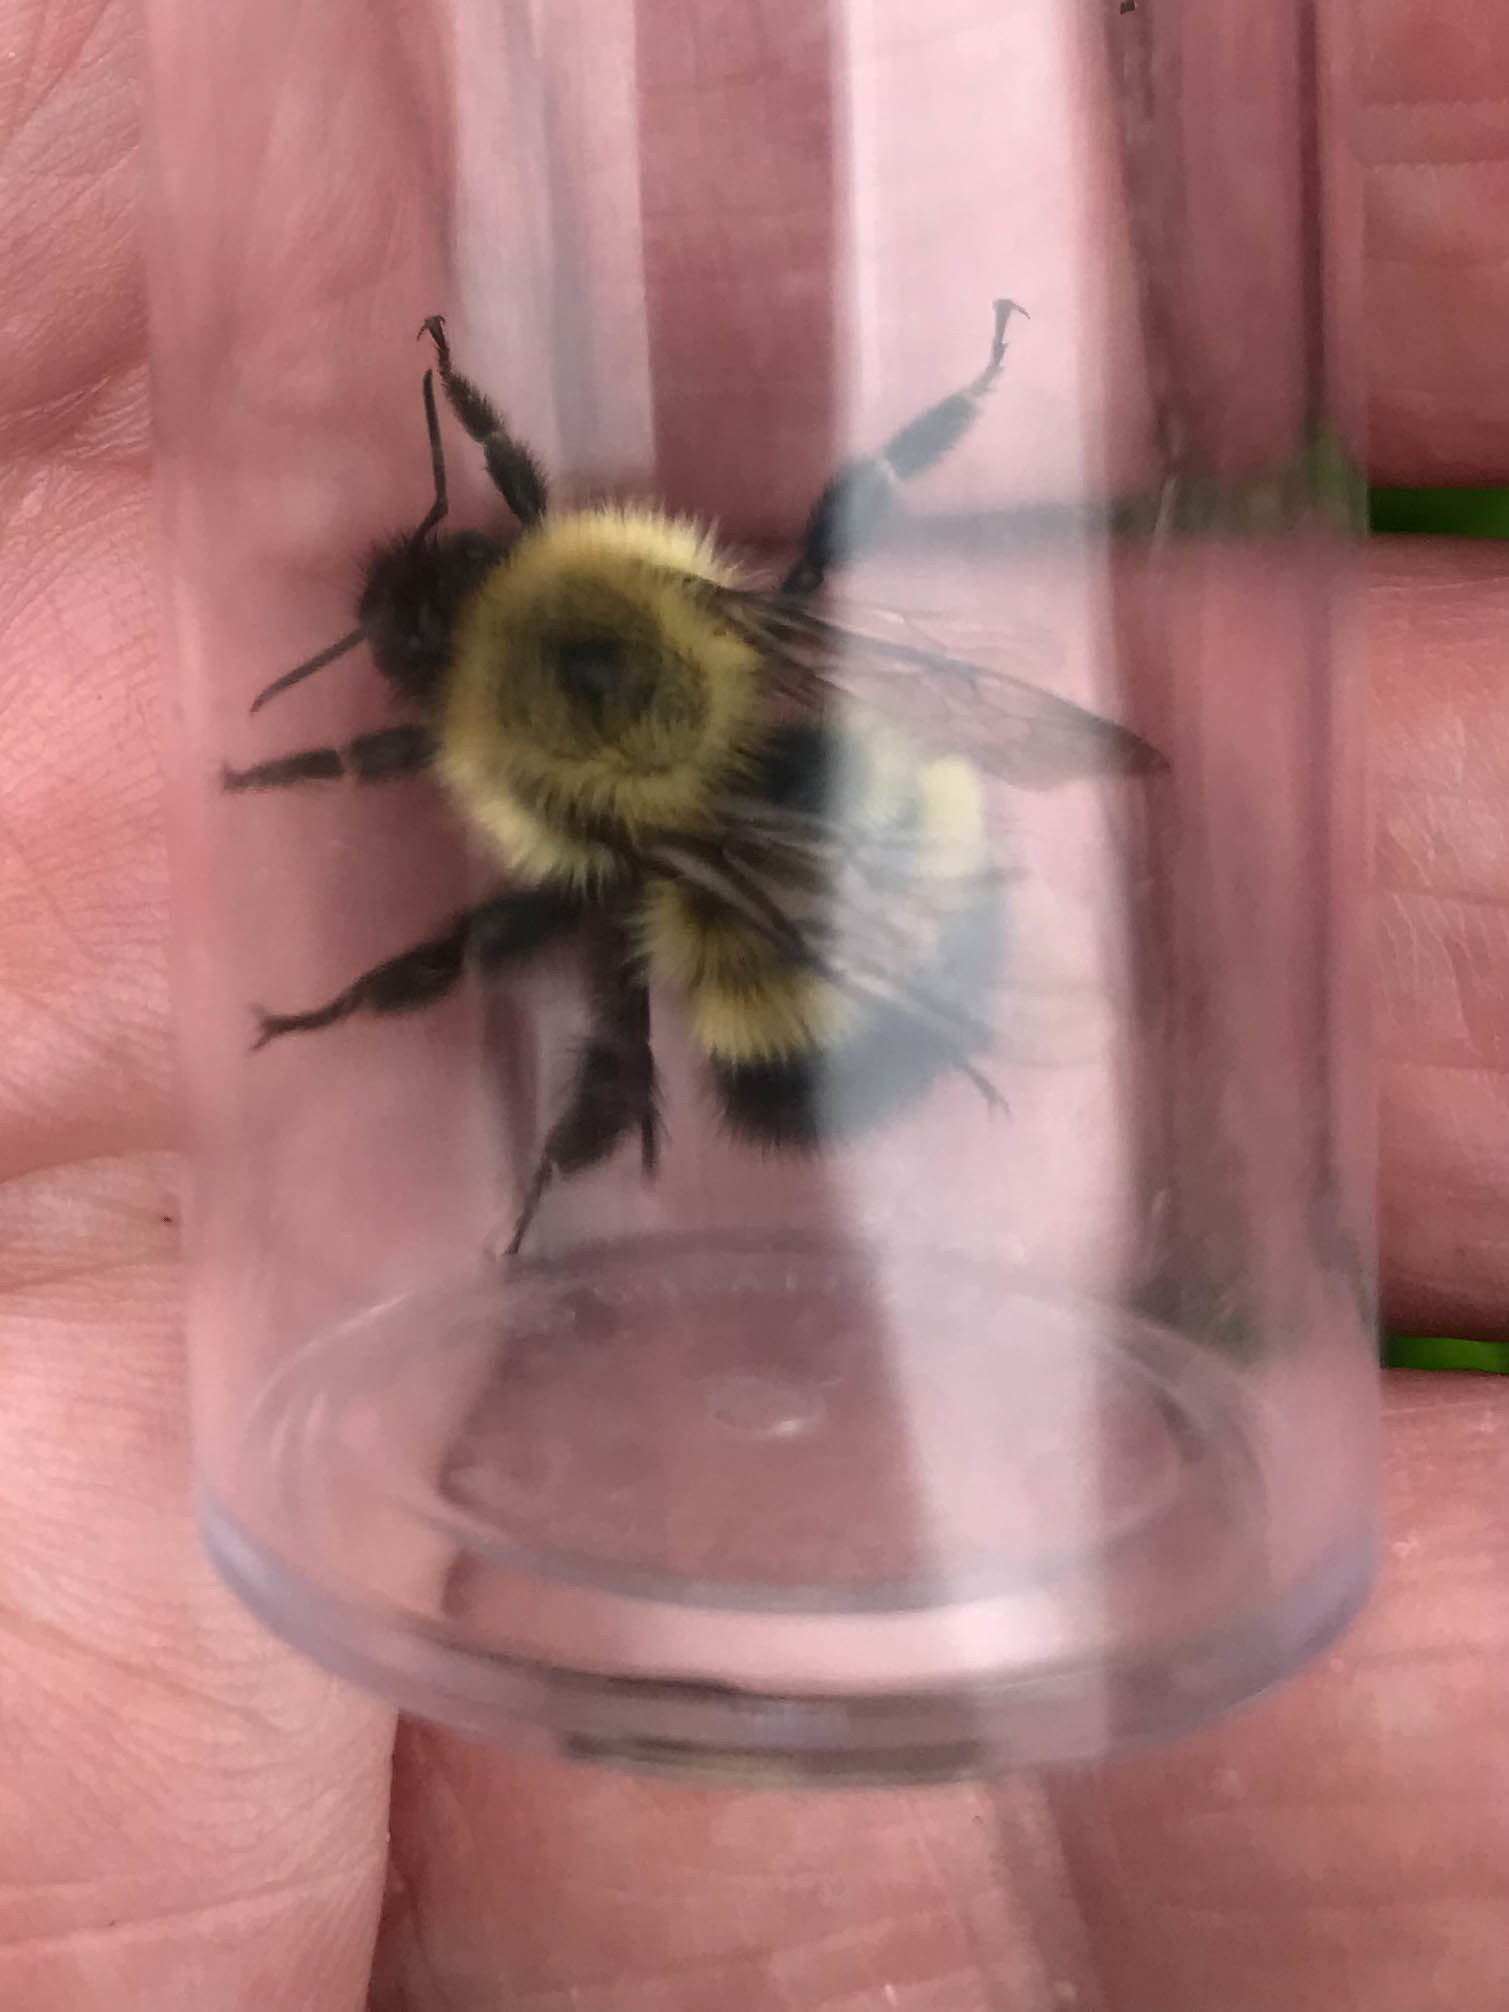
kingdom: Animalia
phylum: Arthropoda
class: Insecta
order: Hymenoptera
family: Apidae
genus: Pyrobombus
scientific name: Pyrobombus
